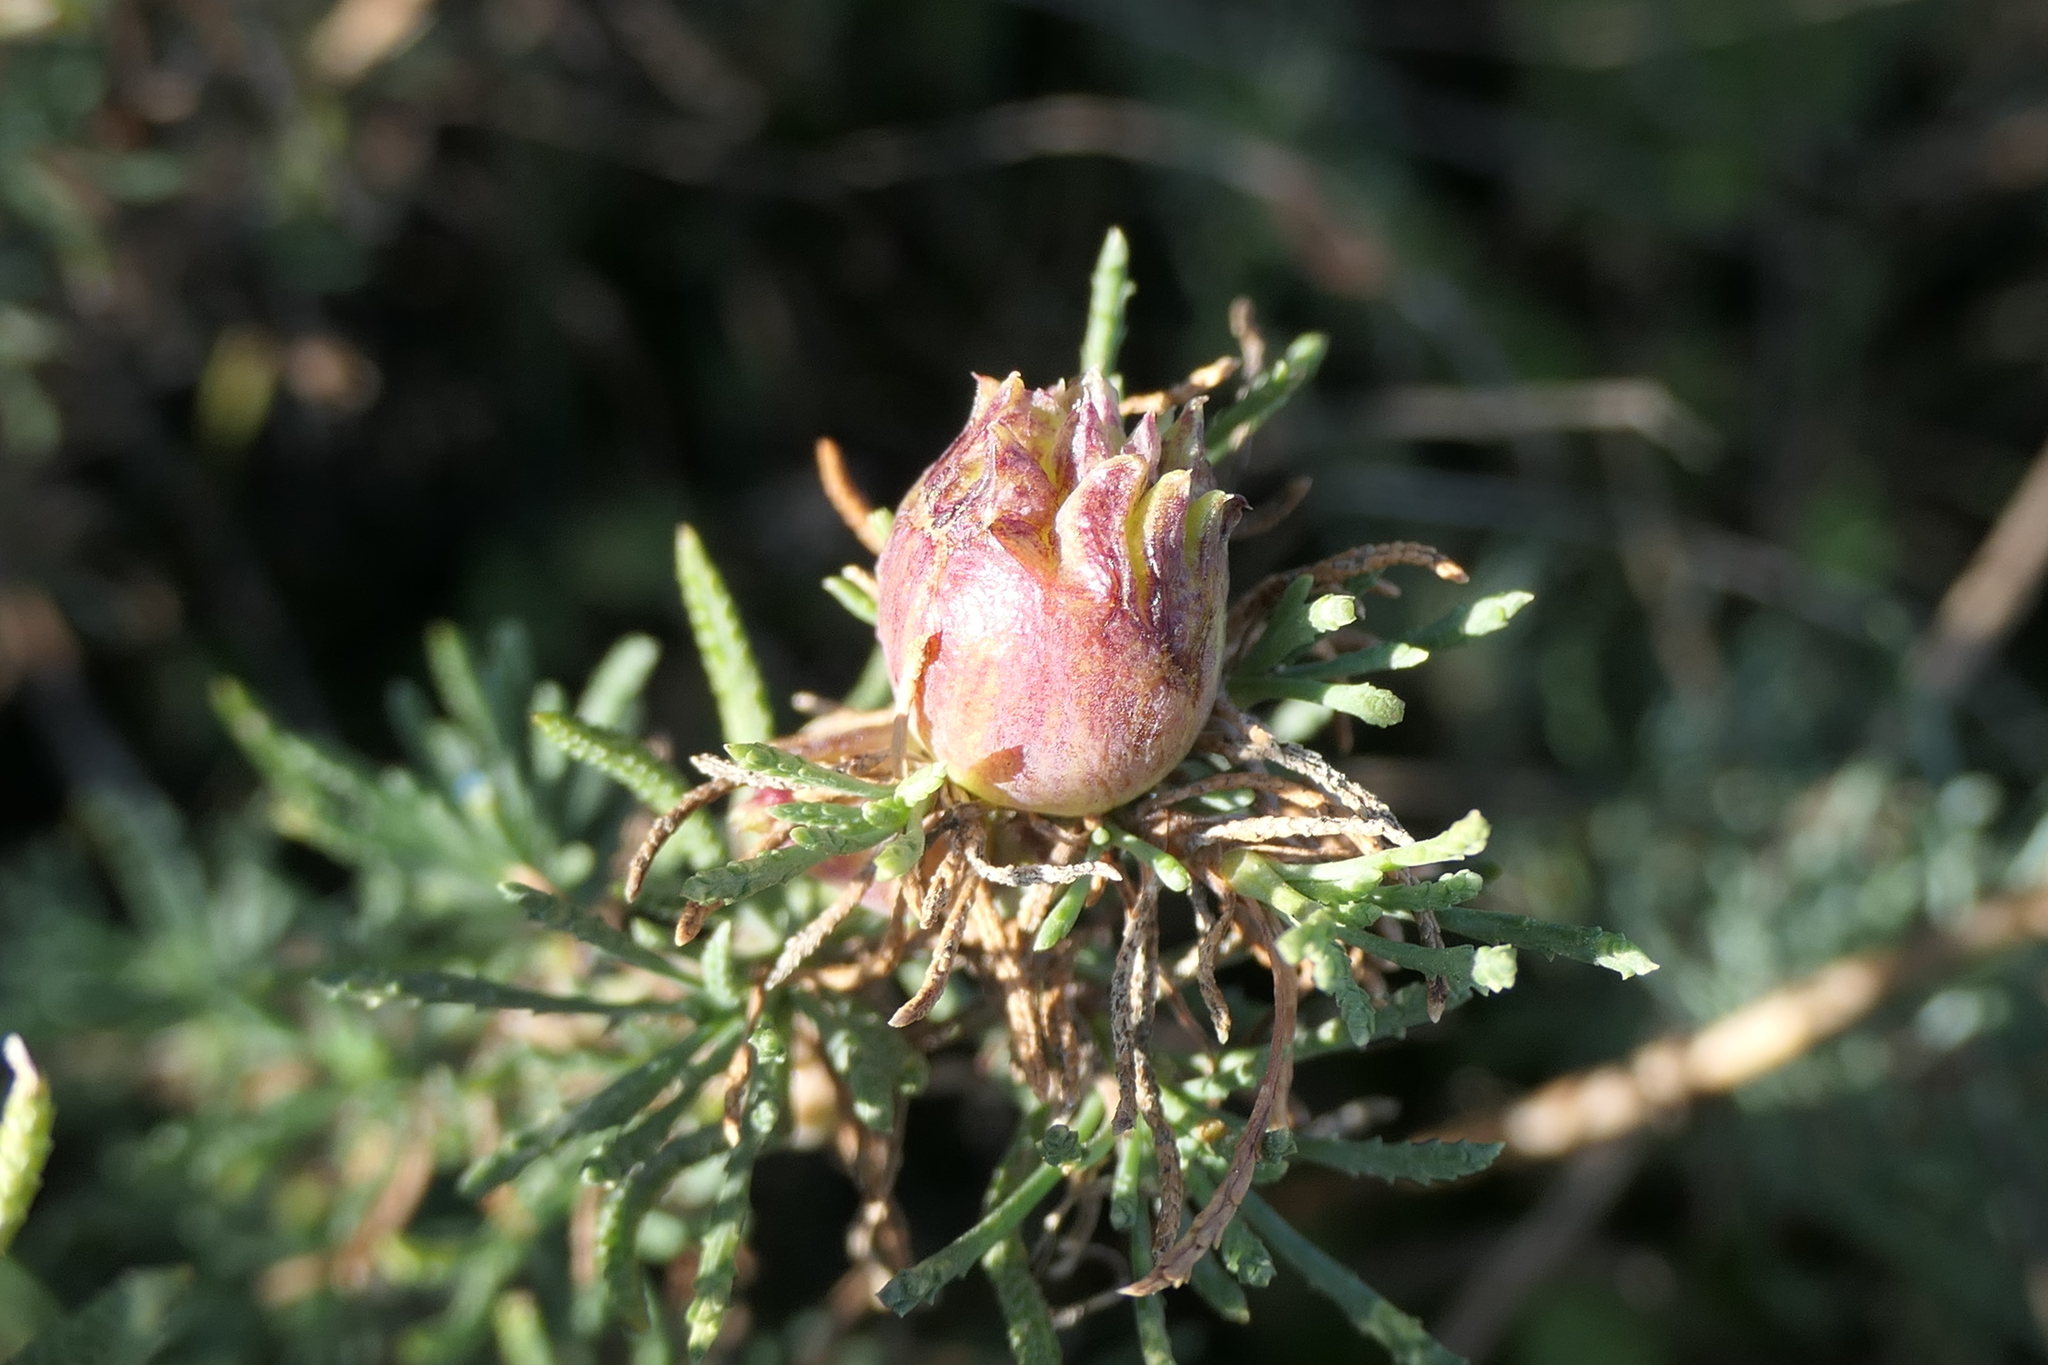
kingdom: Animalia
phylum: Arthropoda
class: Insecta
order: Diptera
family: Cecidomyiidae
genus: Rhopalomyia
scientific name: Rhopalomyia santolinae
